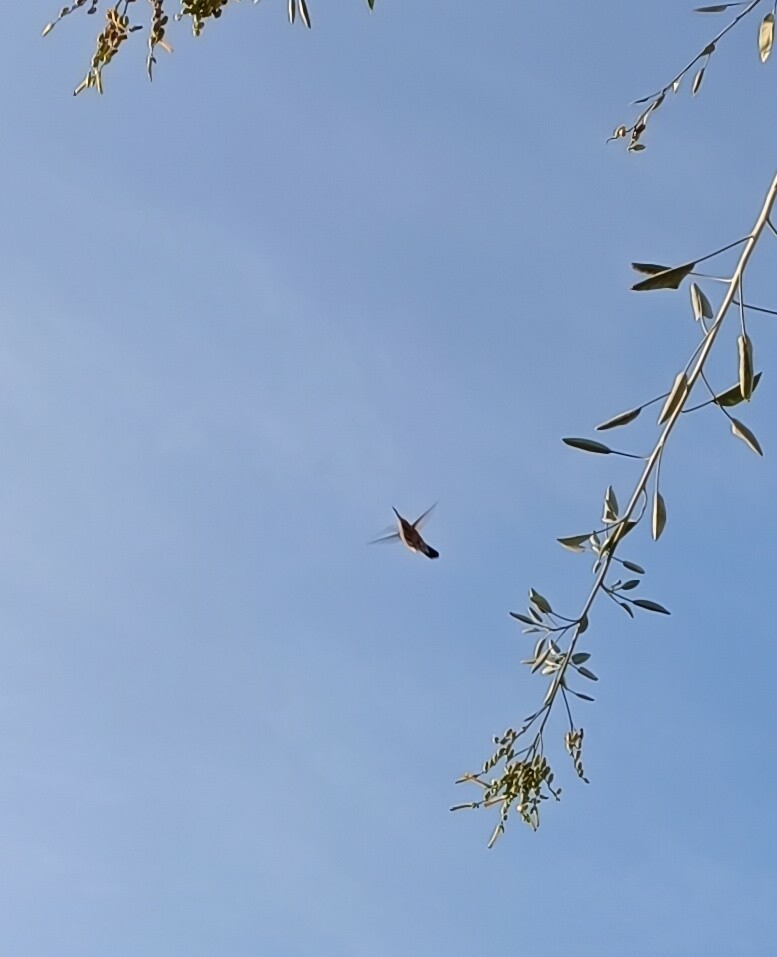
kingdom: Animalia
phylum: Chordata
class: Aves
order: Apodiformes
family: Trochilidae
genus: Cynanthus
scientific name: Cynanthus latirostris
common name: Broad-billed hummingbird
